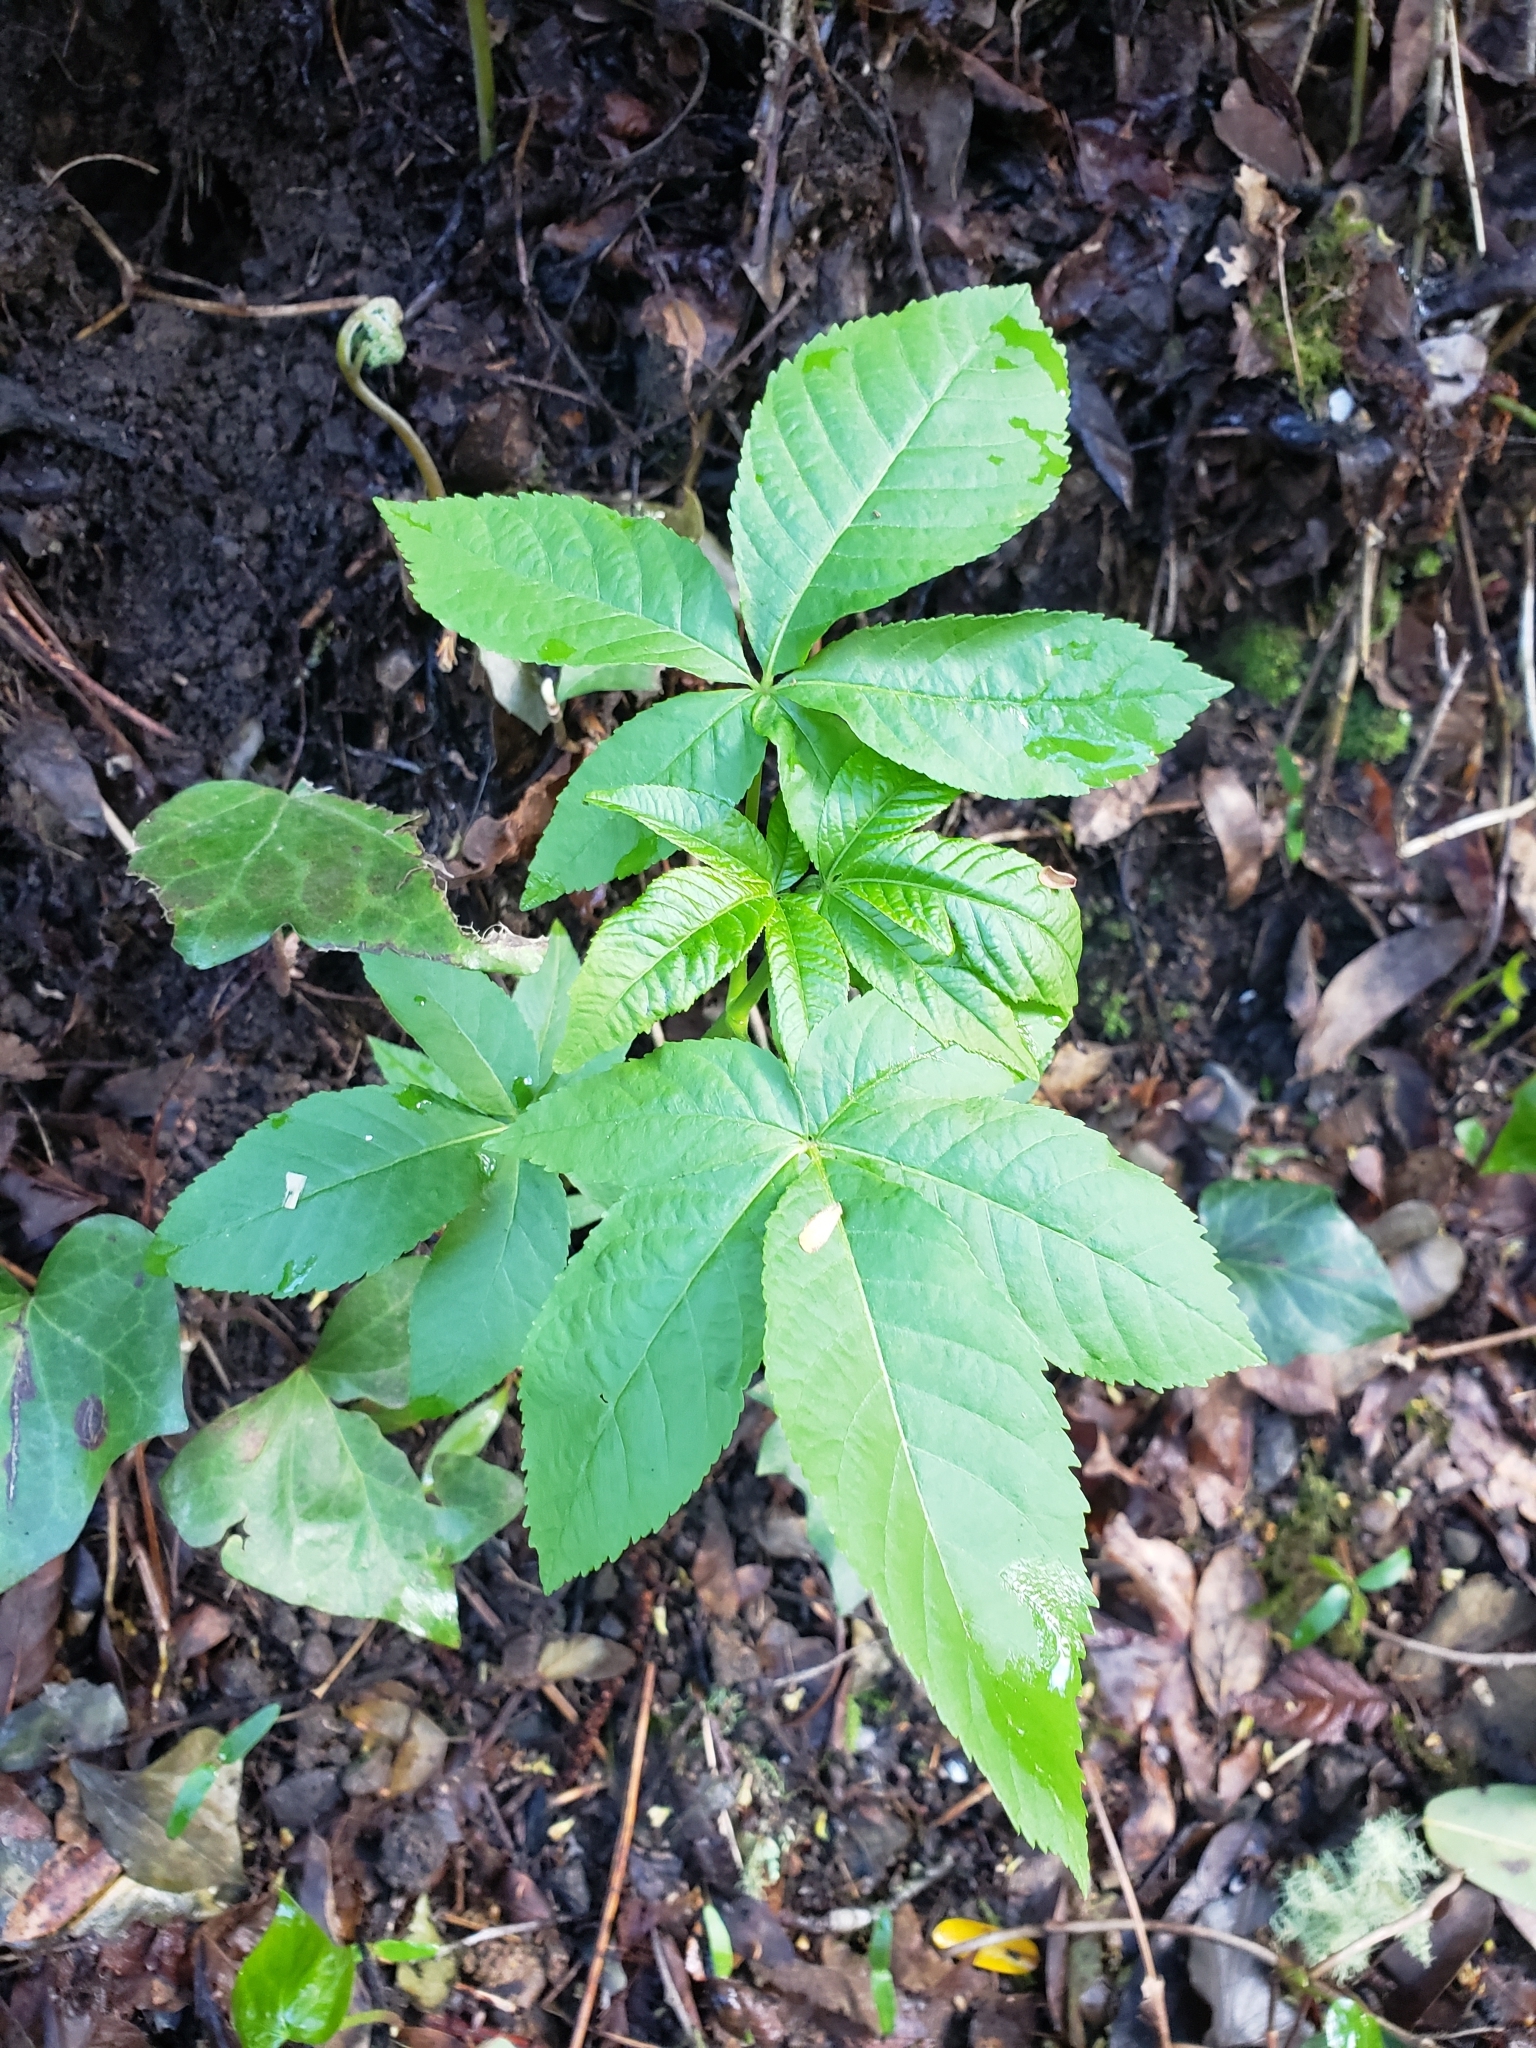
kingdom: Plantae
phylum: Tracheophyta
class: Magnoliopsida
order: Sapindales
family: Sapindaceae
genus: Aesculus
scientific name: Aesculus californica
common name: California buckeye
